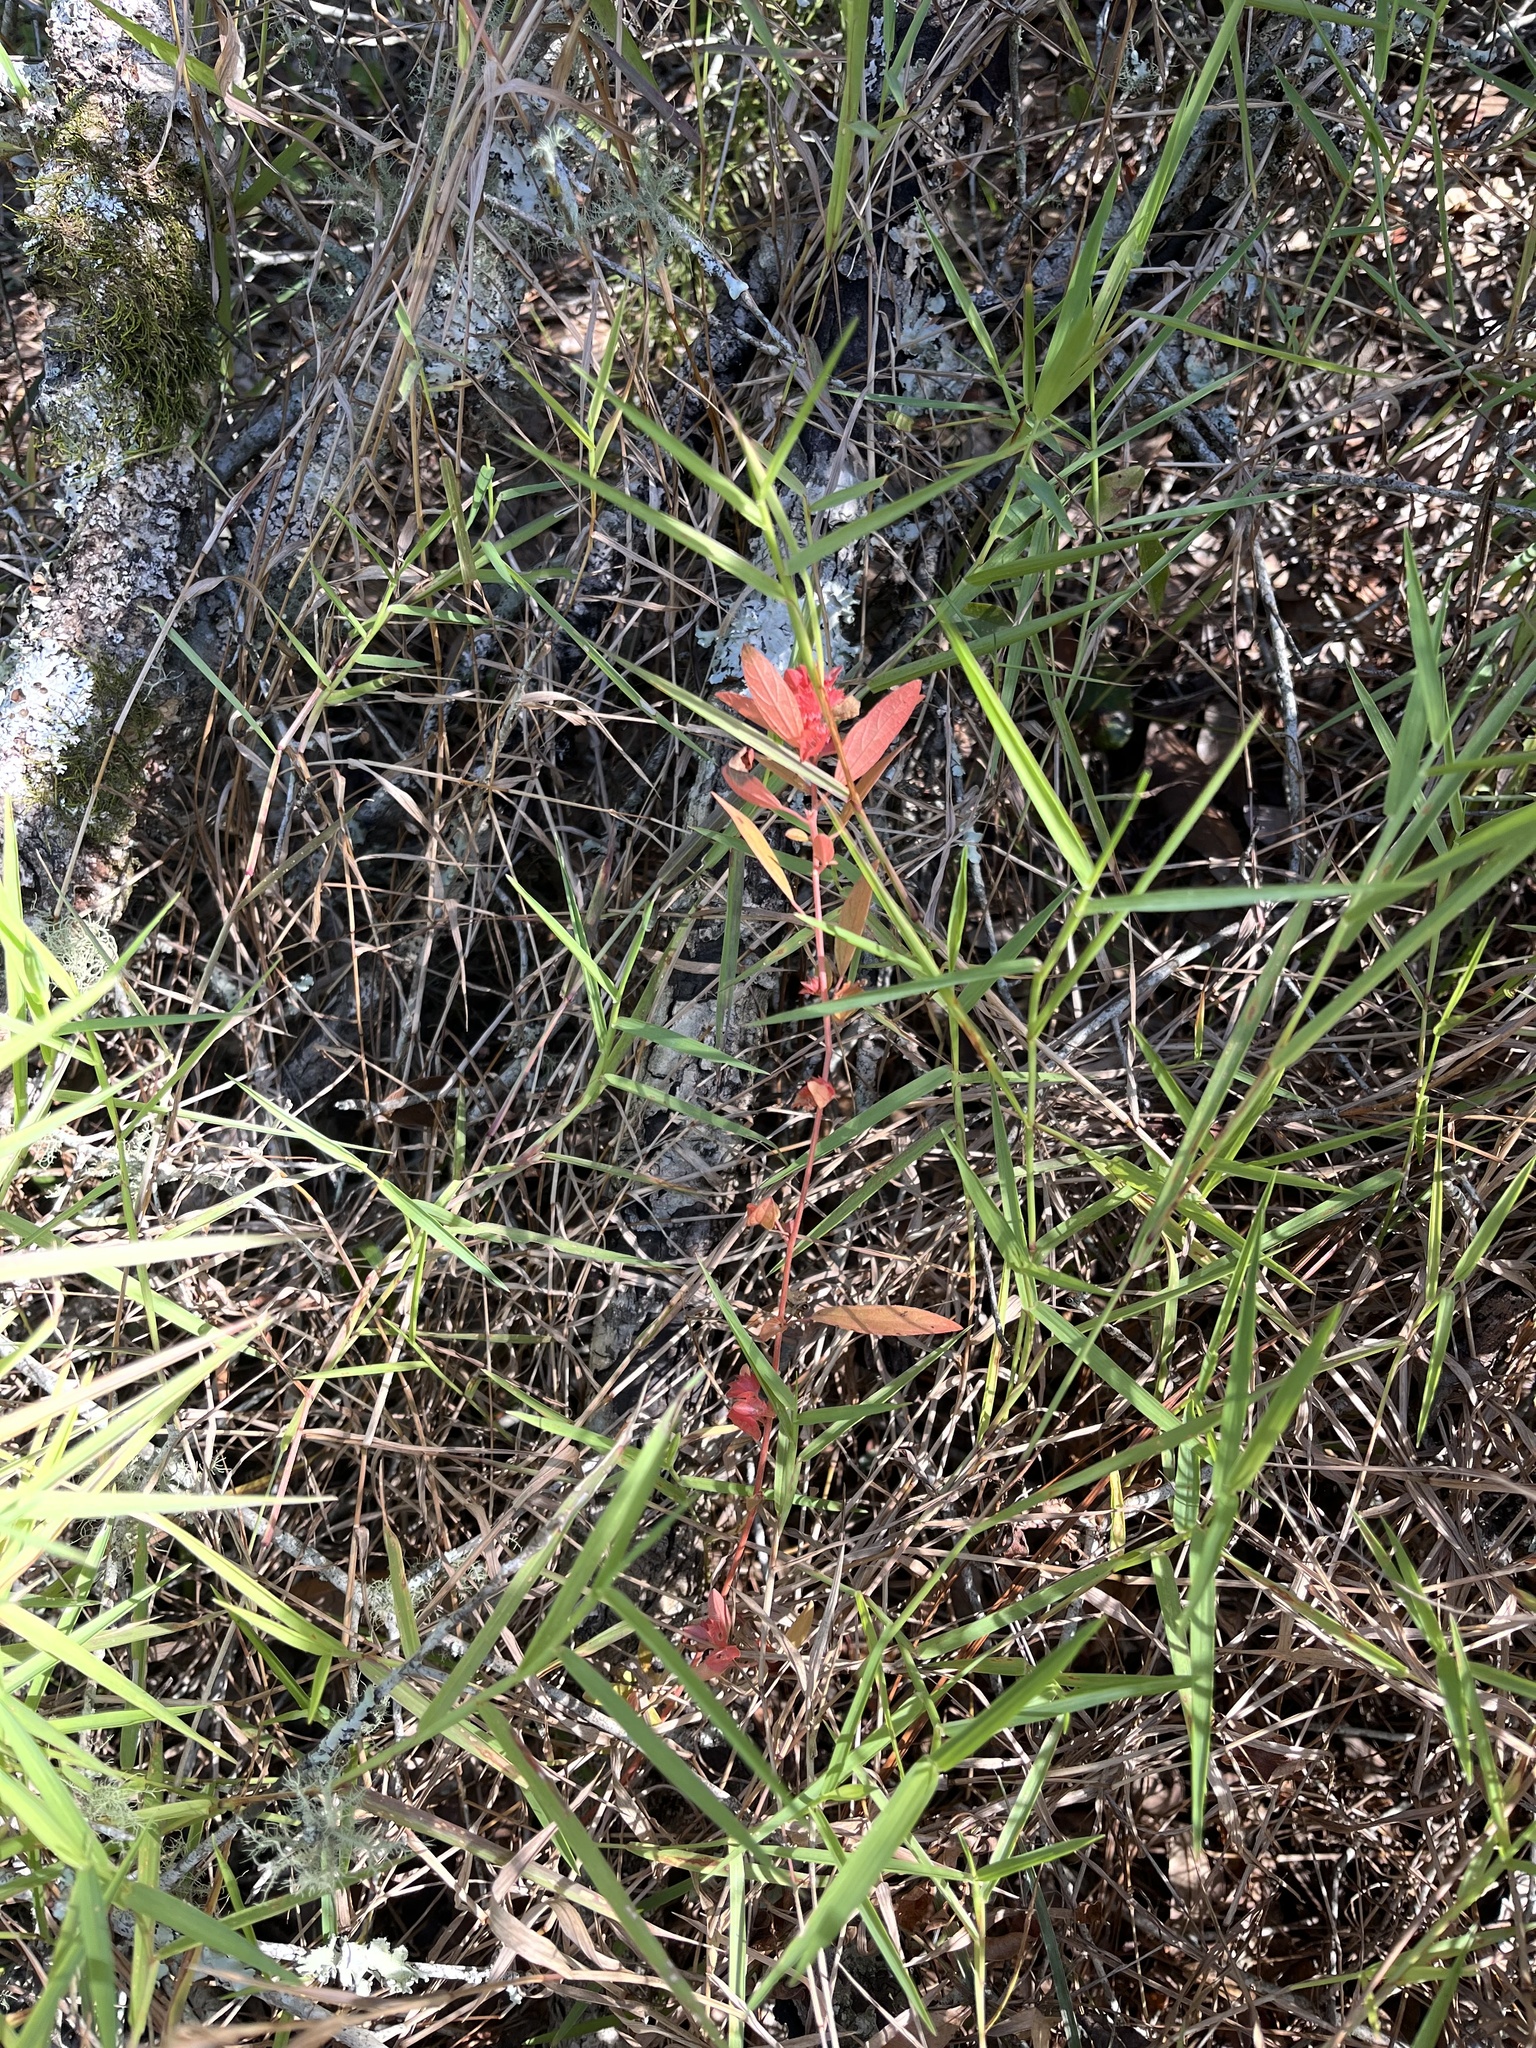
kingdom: Plantae
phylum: Tracheophyta
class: Magnoliopsida
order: Malpighiales
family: Euphorbiaceae
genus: Acalypha
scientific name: Acalypha gracilens
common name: Slender three-seeded mercury
